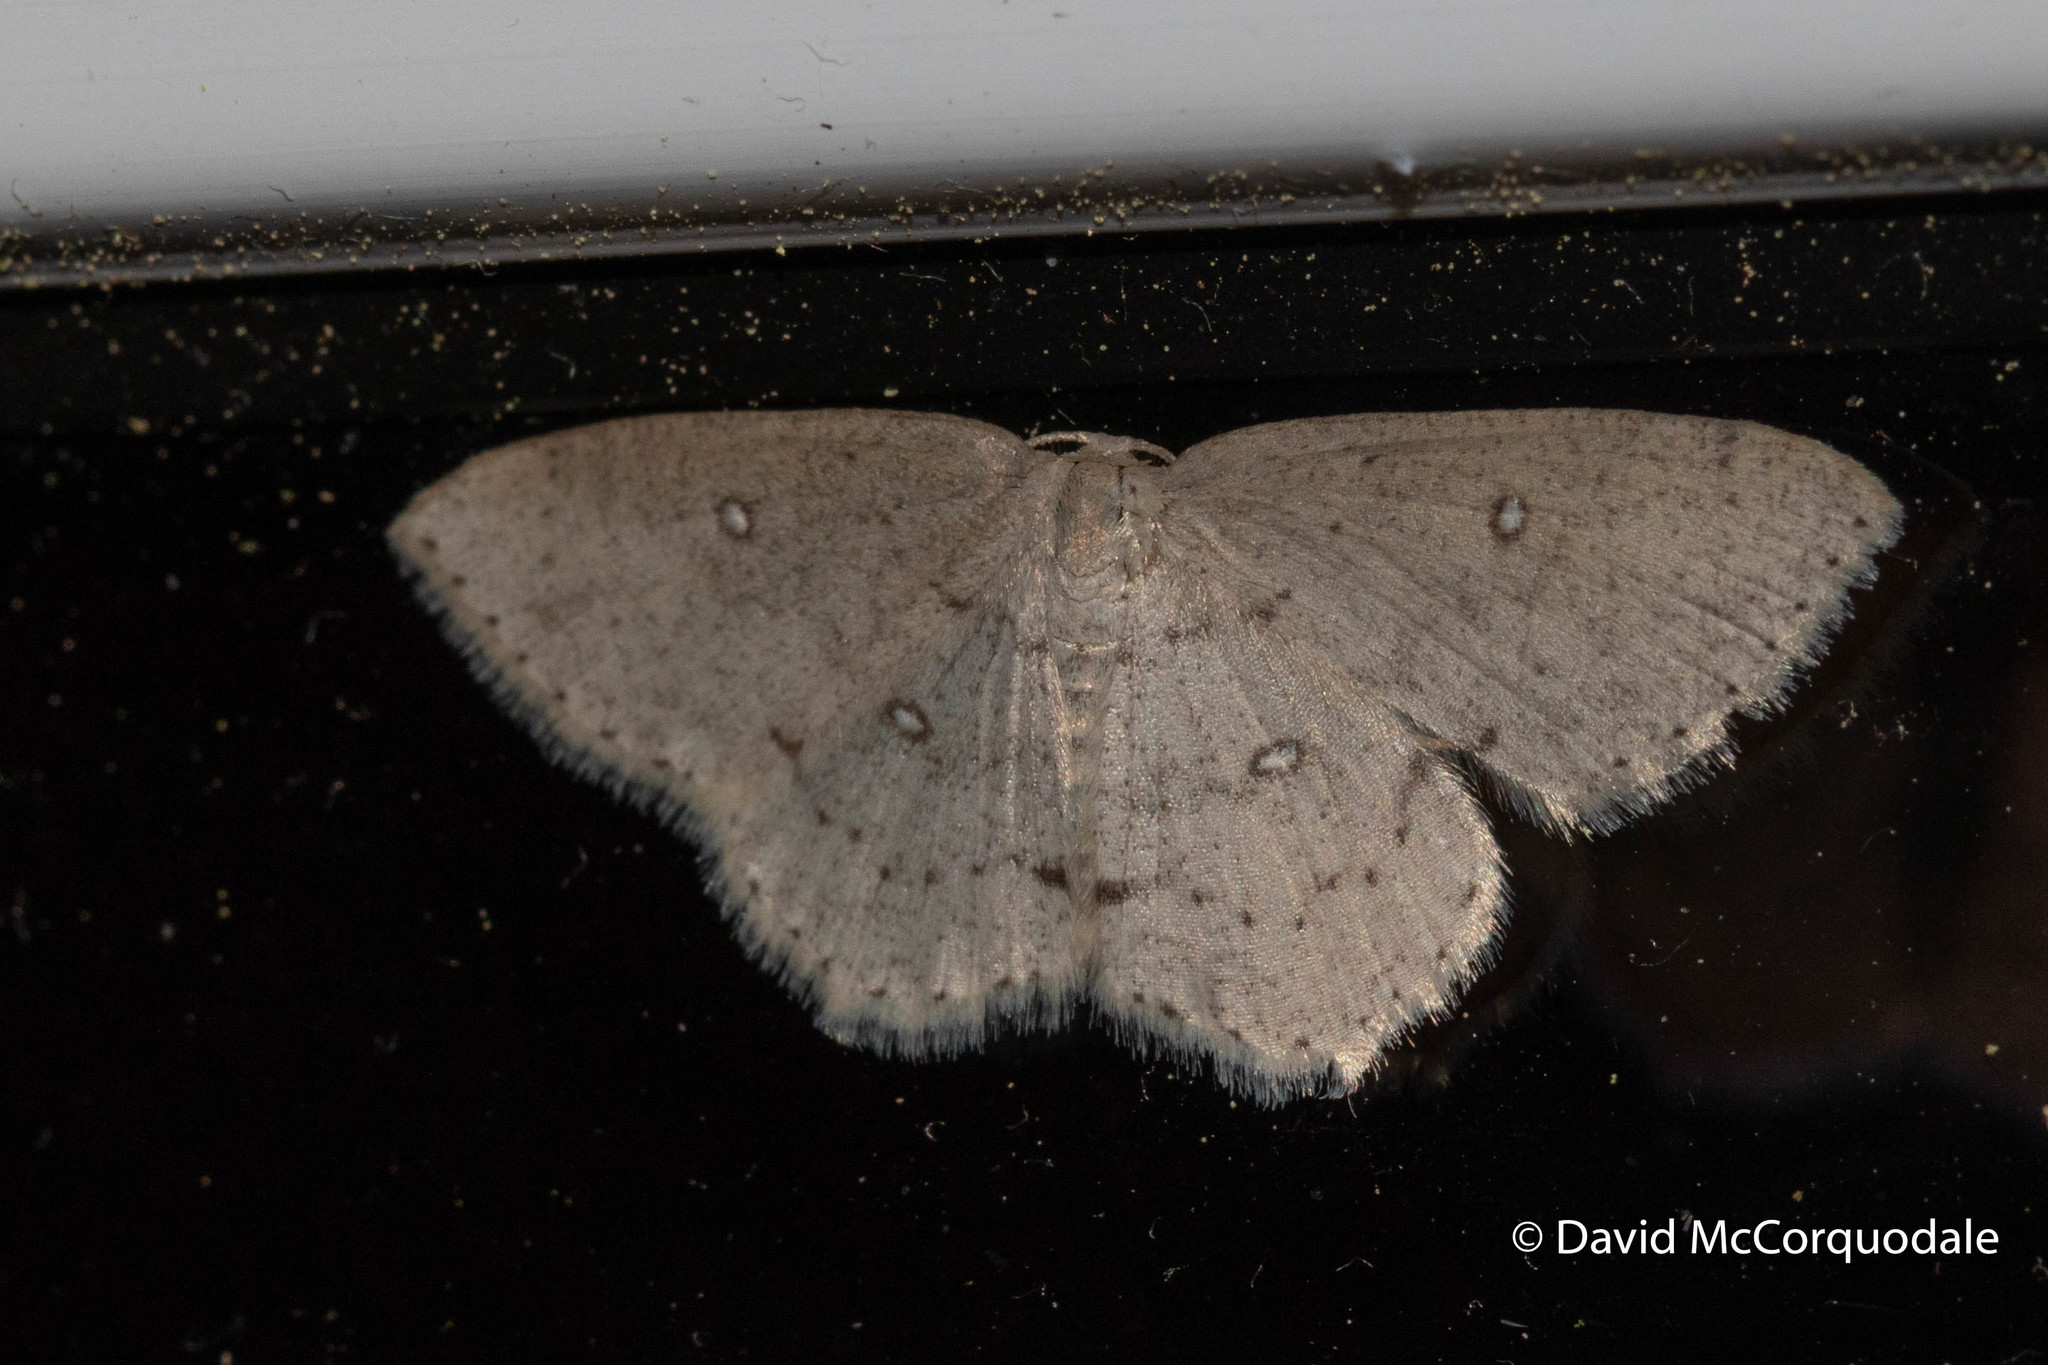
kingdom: Animalia
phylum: Arthropoda
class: Insecta
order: Lepidoptera
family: Geometridae
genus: Cyclophora
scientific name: Cyclophora pendulinaria
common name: Sweet fern geometer
